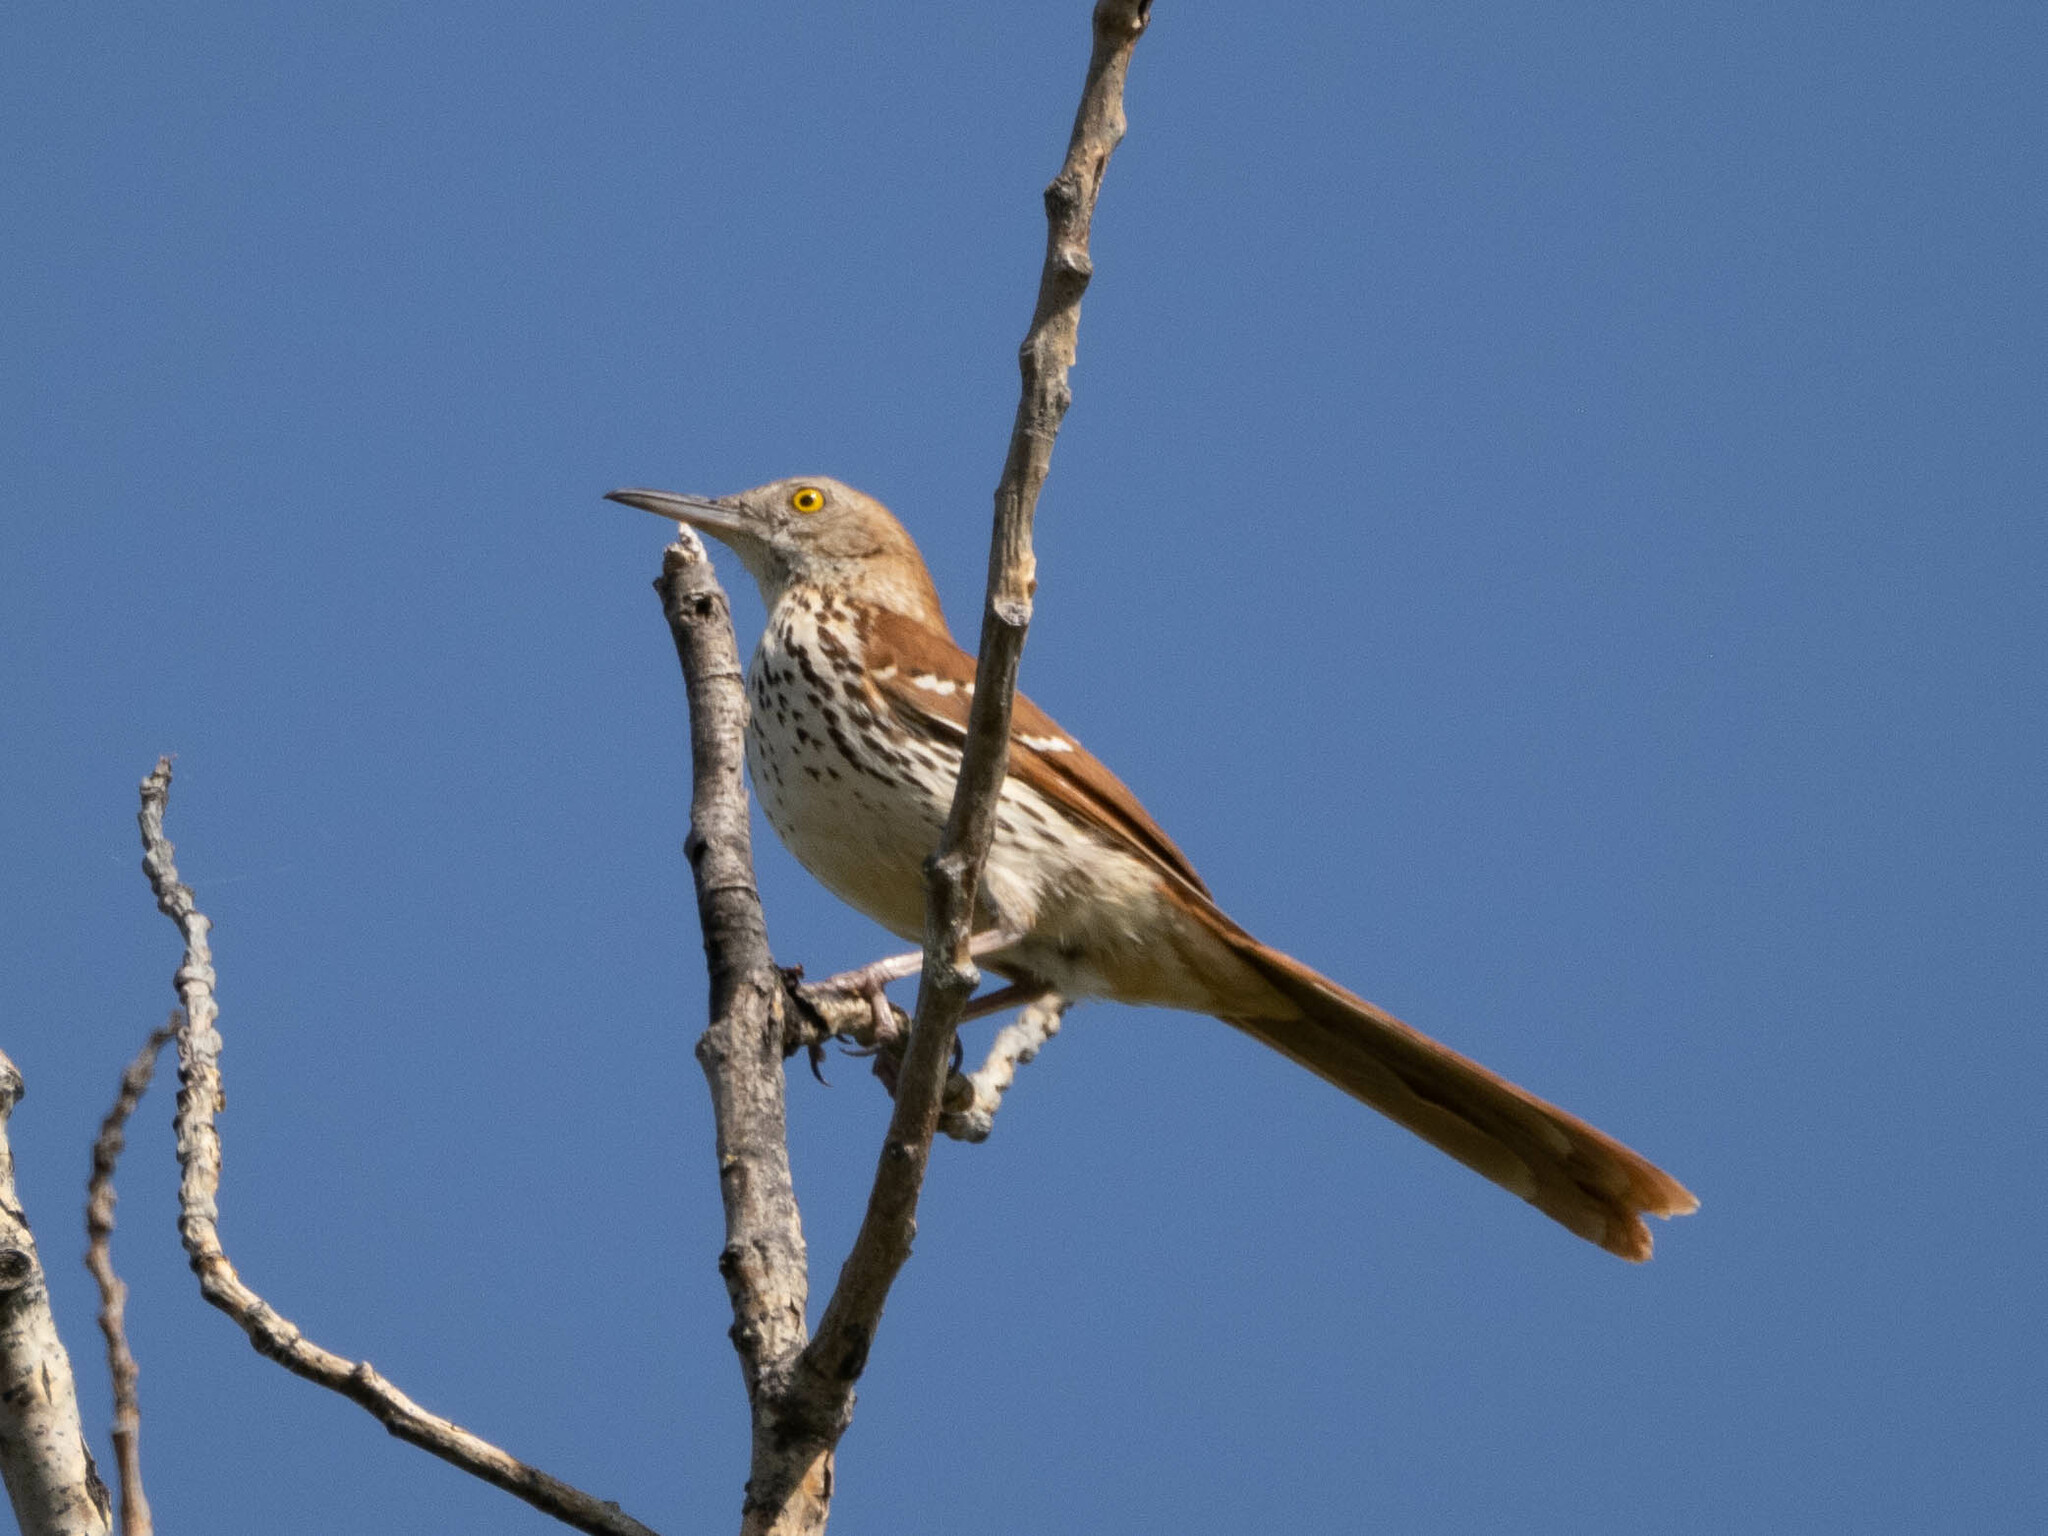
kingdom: Animalia
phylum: Chordata
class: Aves
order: Passeriformes
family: Mimidae
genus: Toxostoma
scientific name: Toxostoma rufum
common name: Brown thrasher
